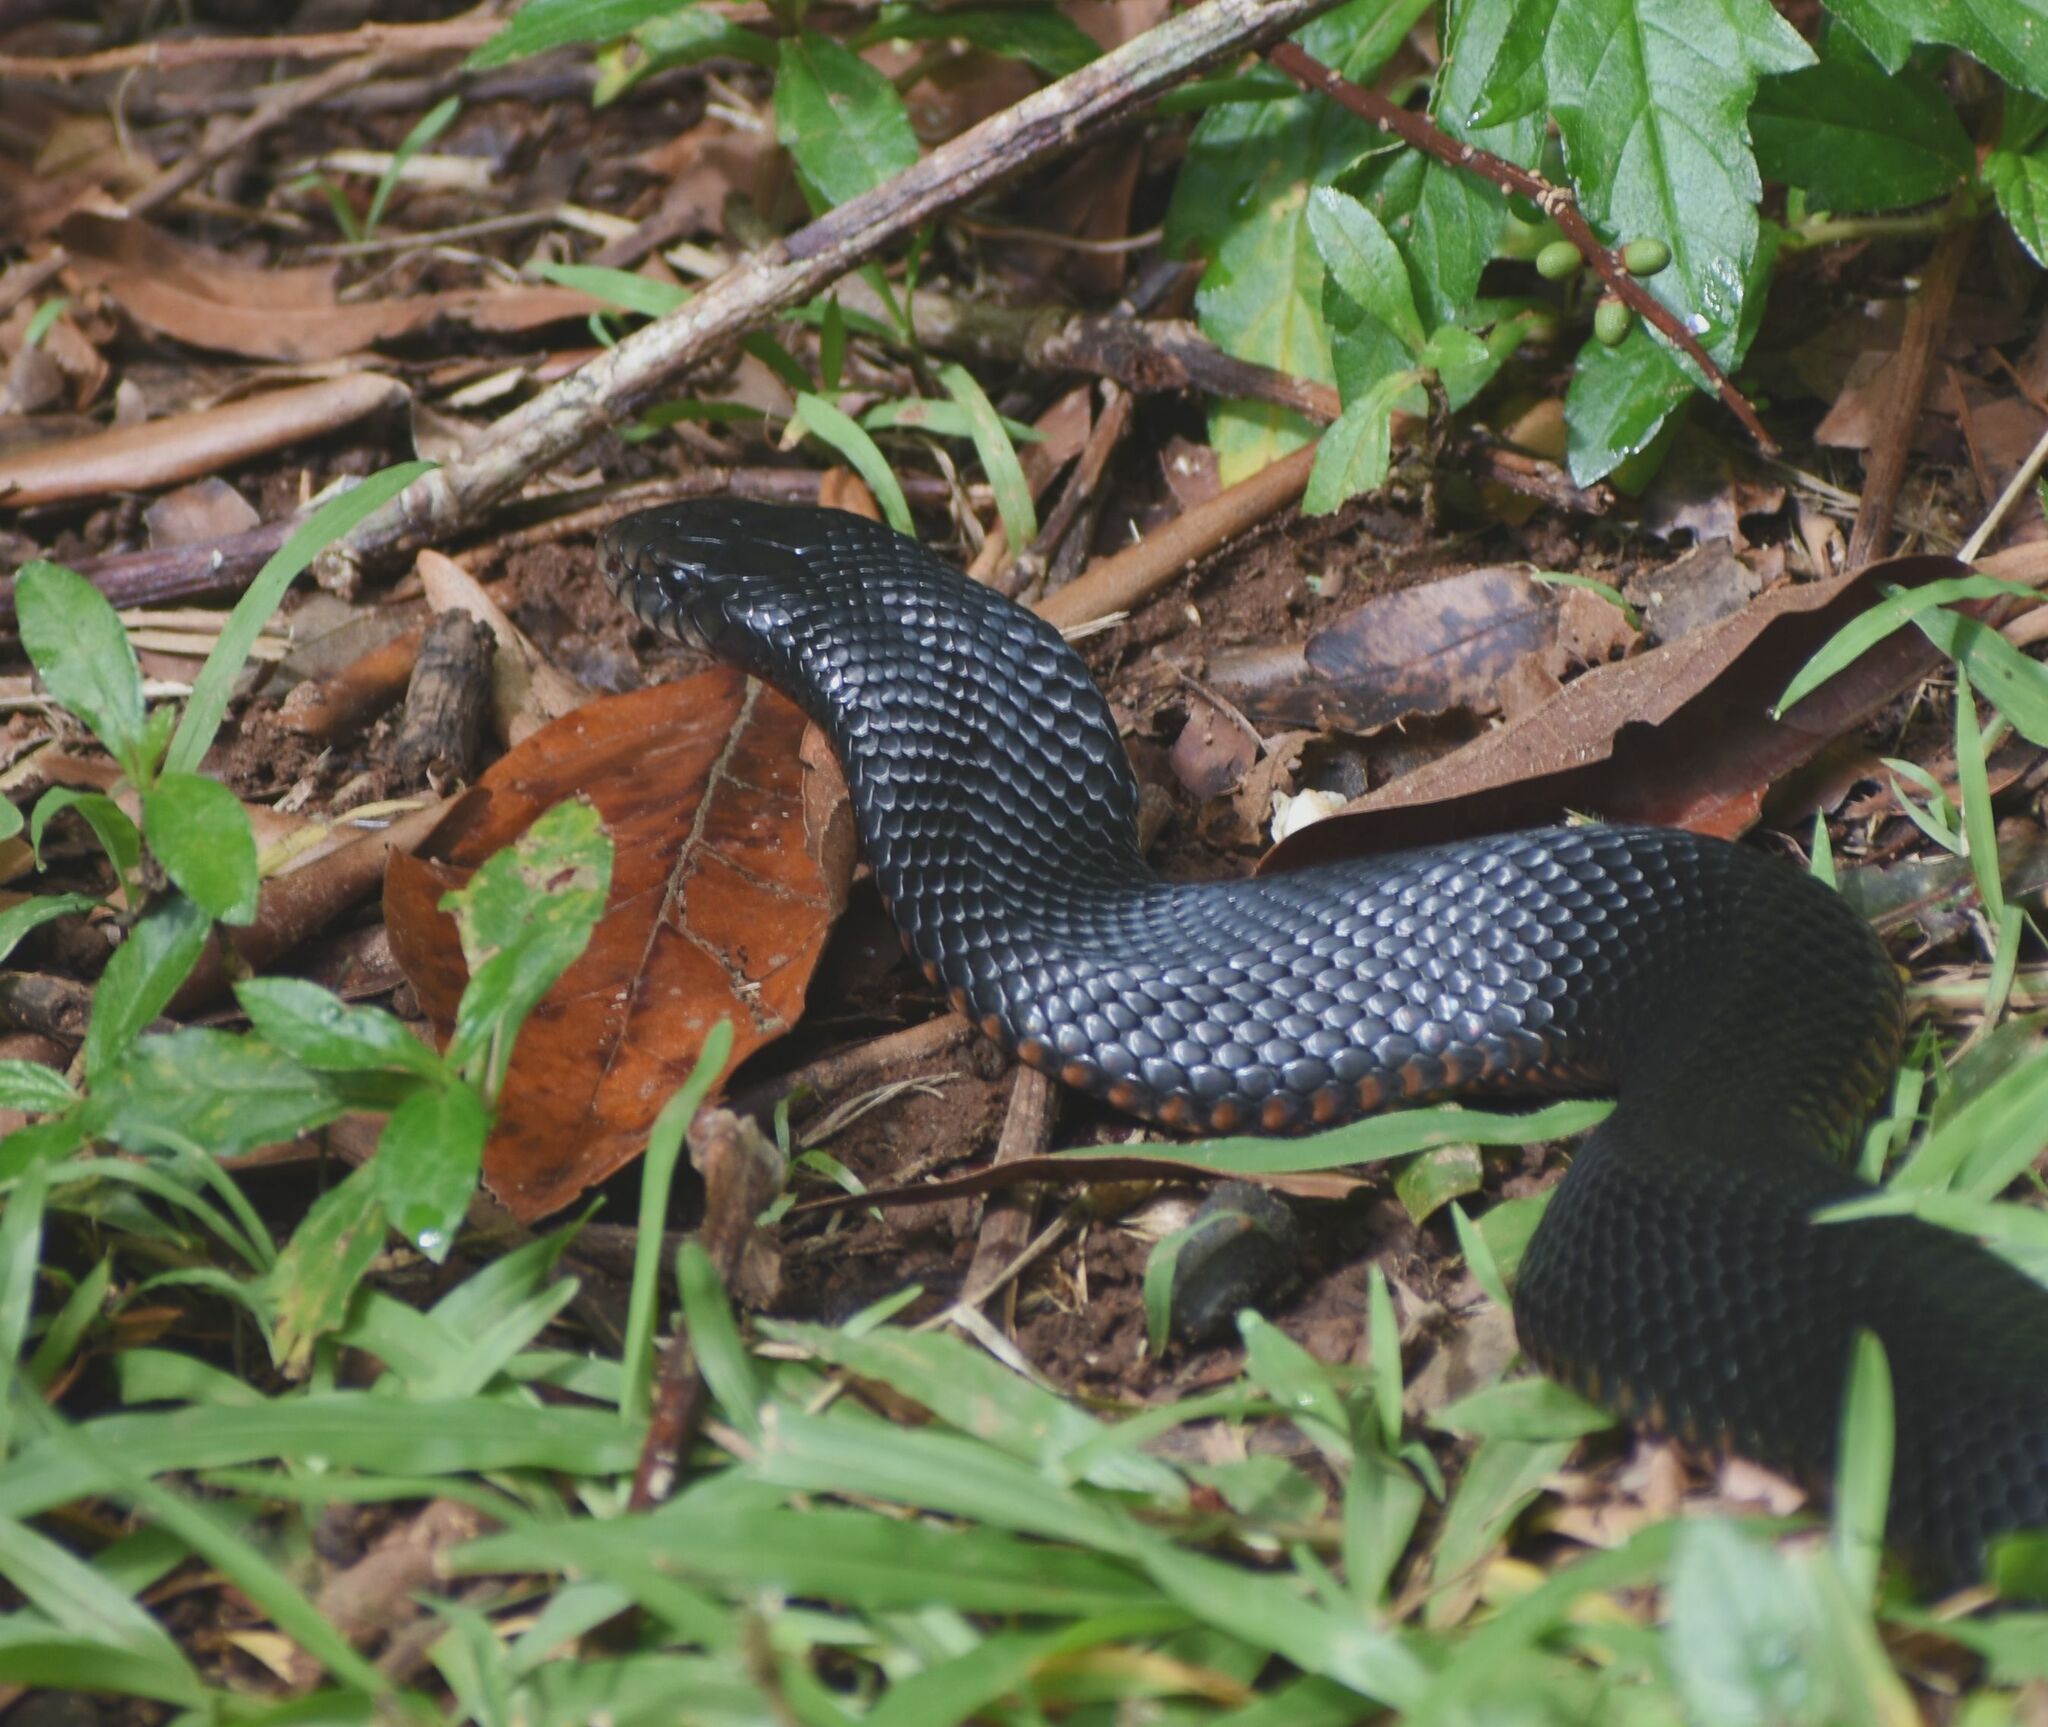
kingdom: Animalia
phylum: Chordata
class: Squamata
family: Elapidae
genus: Pseudechis
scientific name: Pseudechis porphyriacus
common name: Australian black snake
